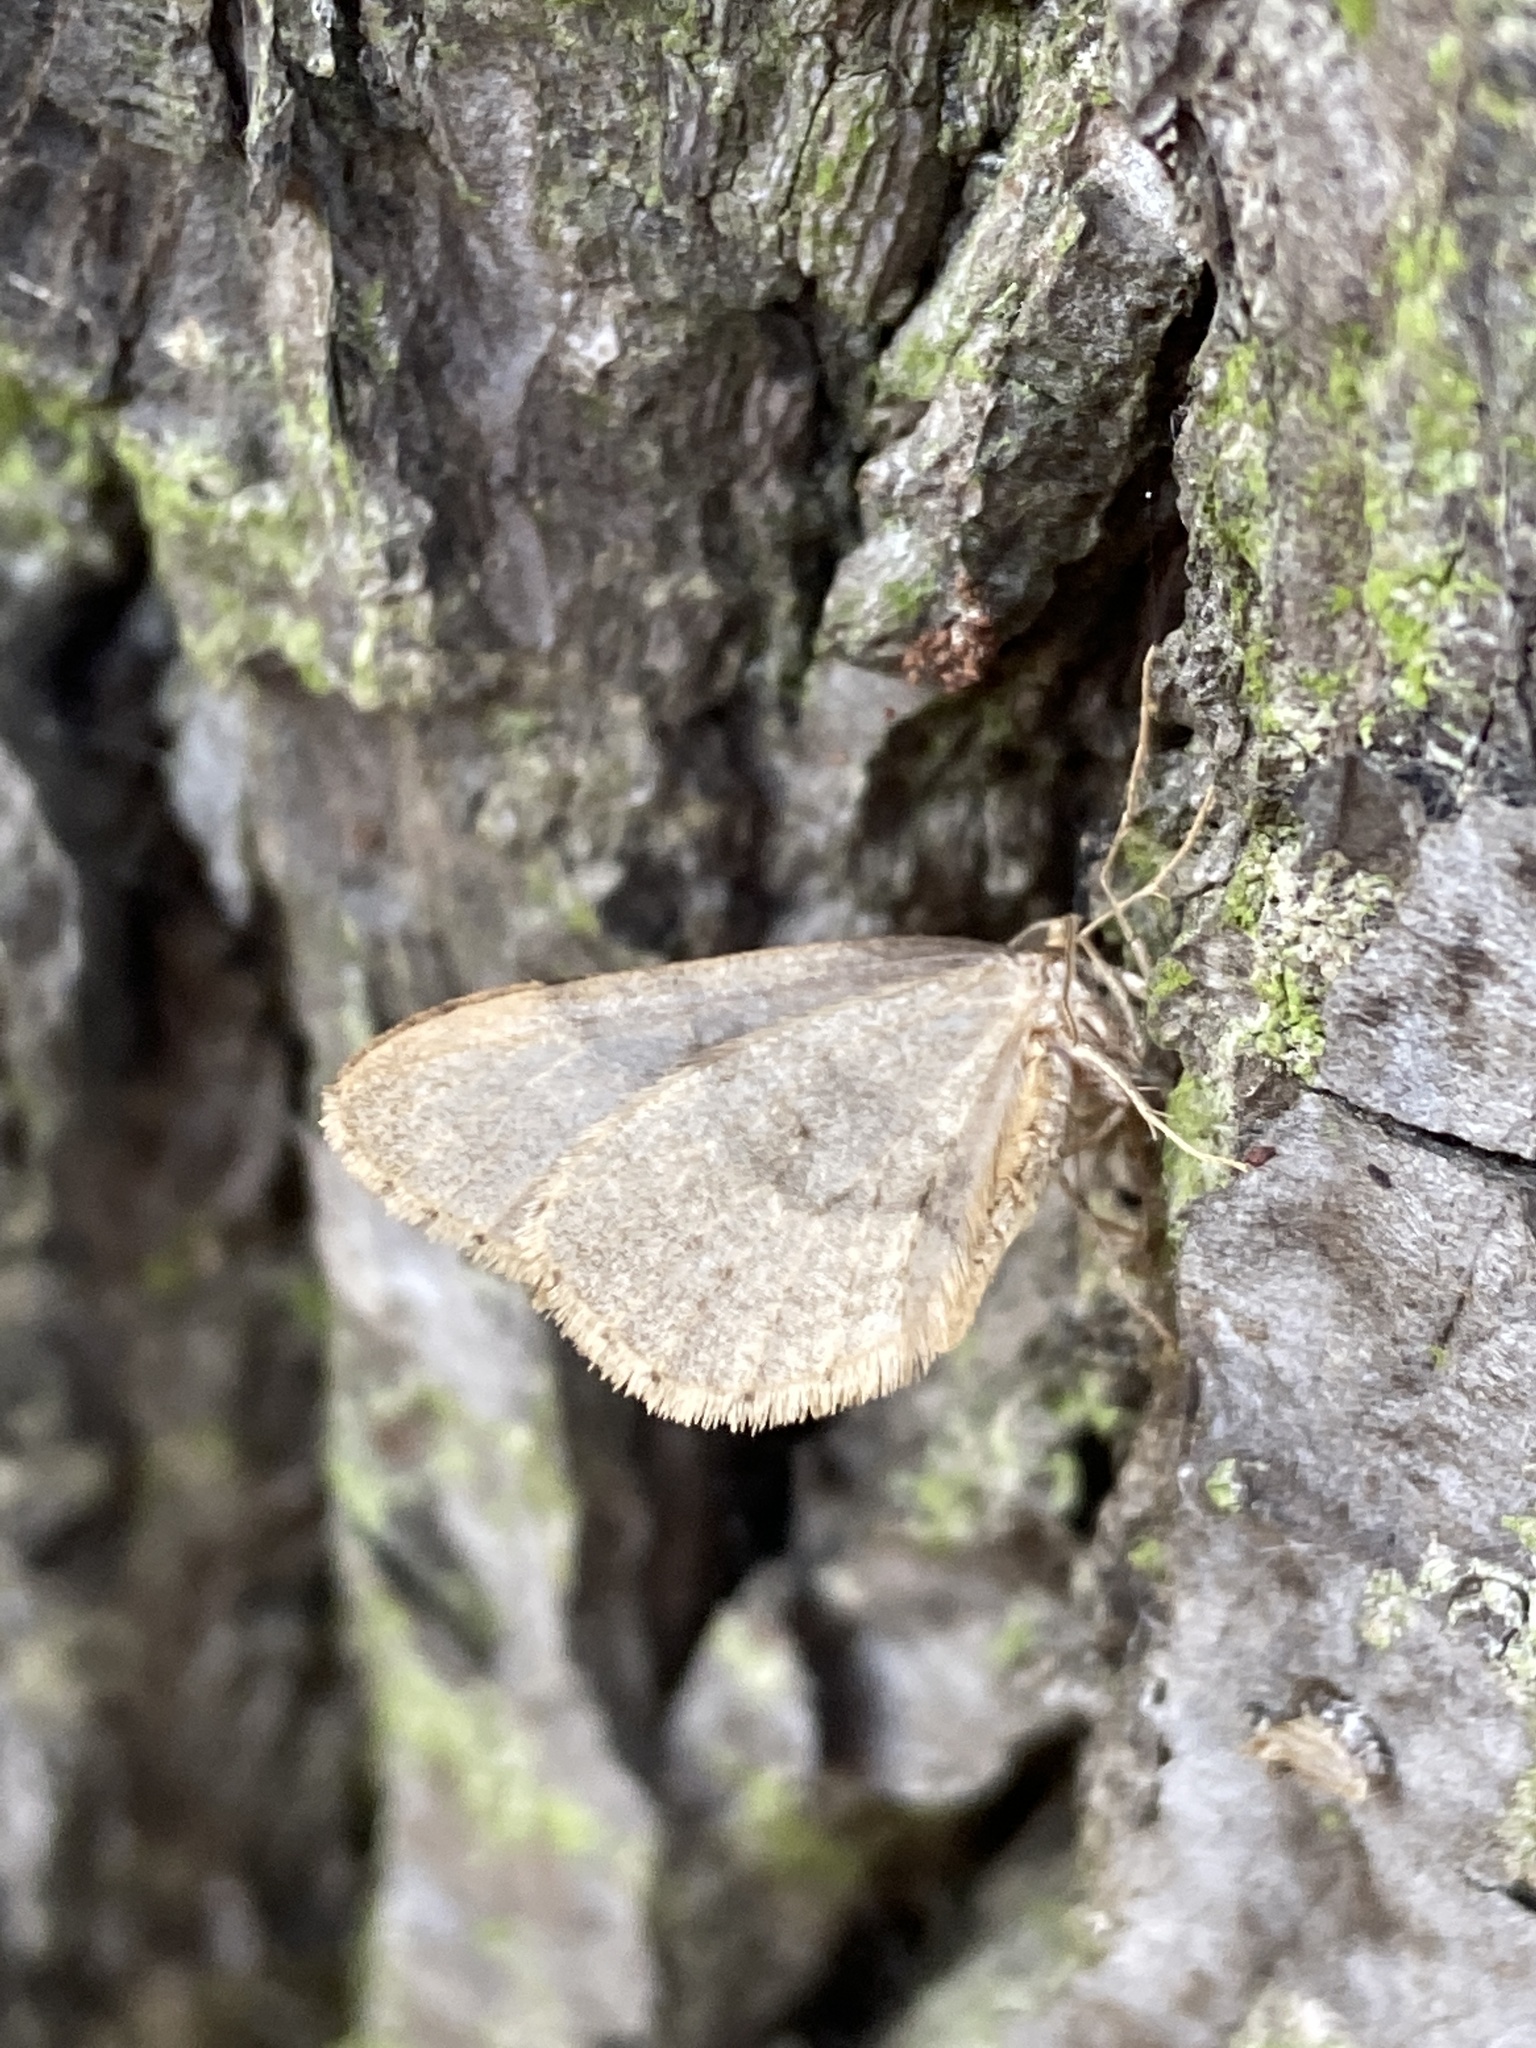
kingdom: Animalia
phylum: Arthropoda
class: Insecta
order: Lepidoptera
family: Geometridae
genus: Operophtera
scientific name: Operophtera brumata
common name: Winter moth
